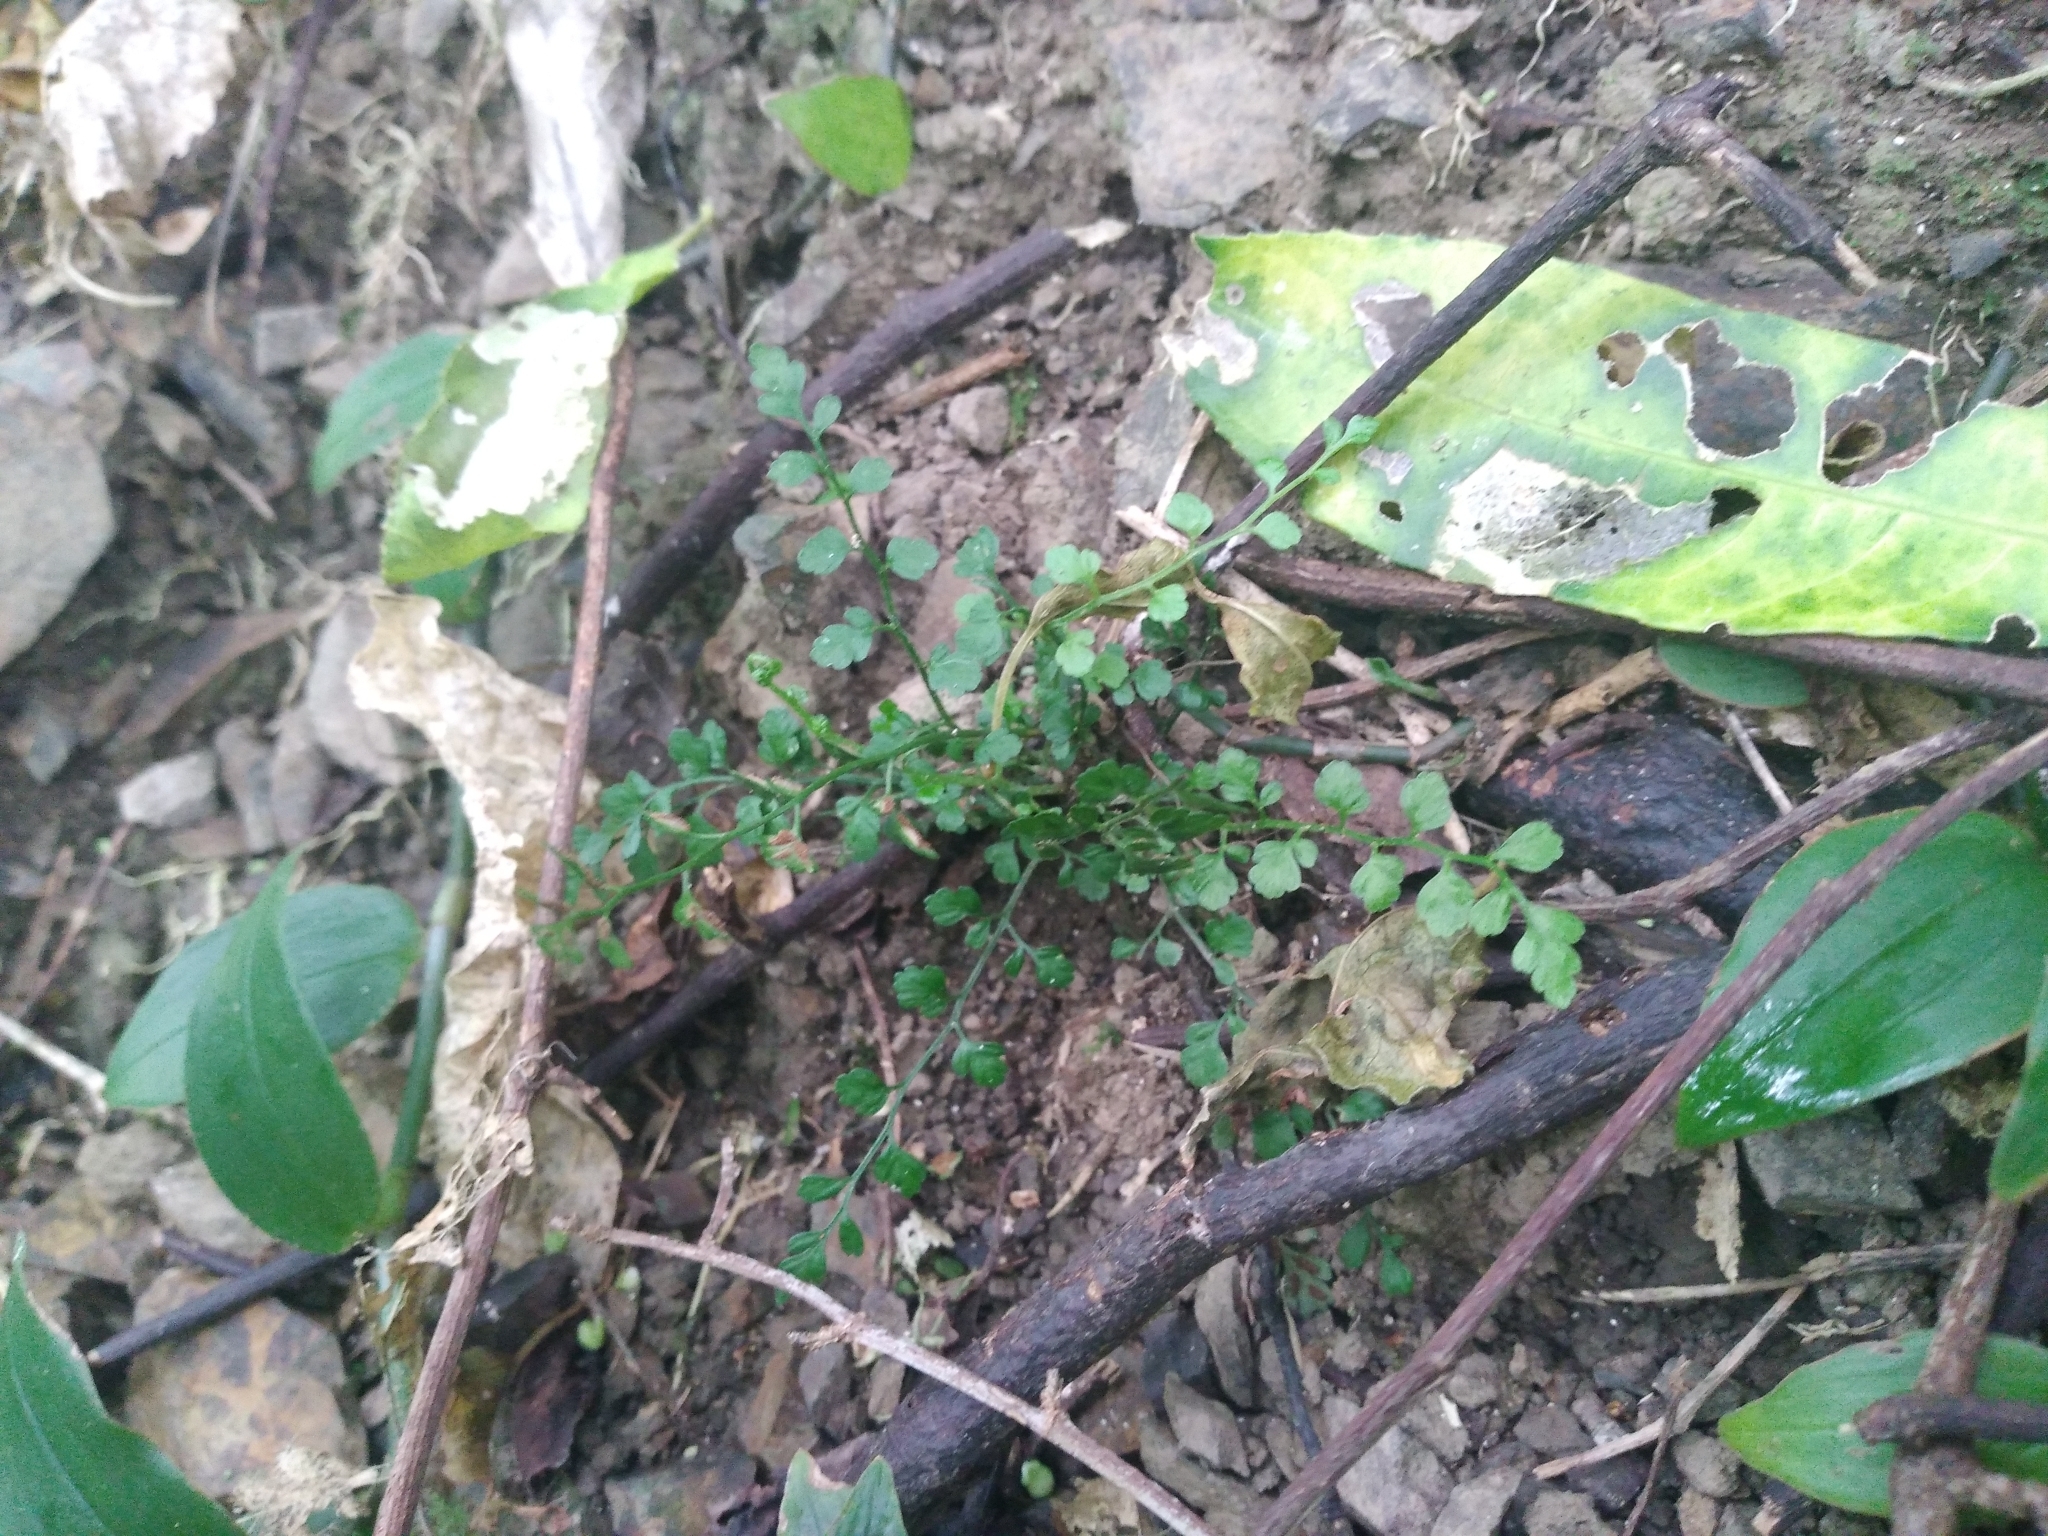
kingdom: Plantae
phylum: Tracheophyta
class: Polypodiopsida
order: Polypodiales
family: Aspleniaceae
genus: Asplenium
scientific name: Asplenium hookerianum
